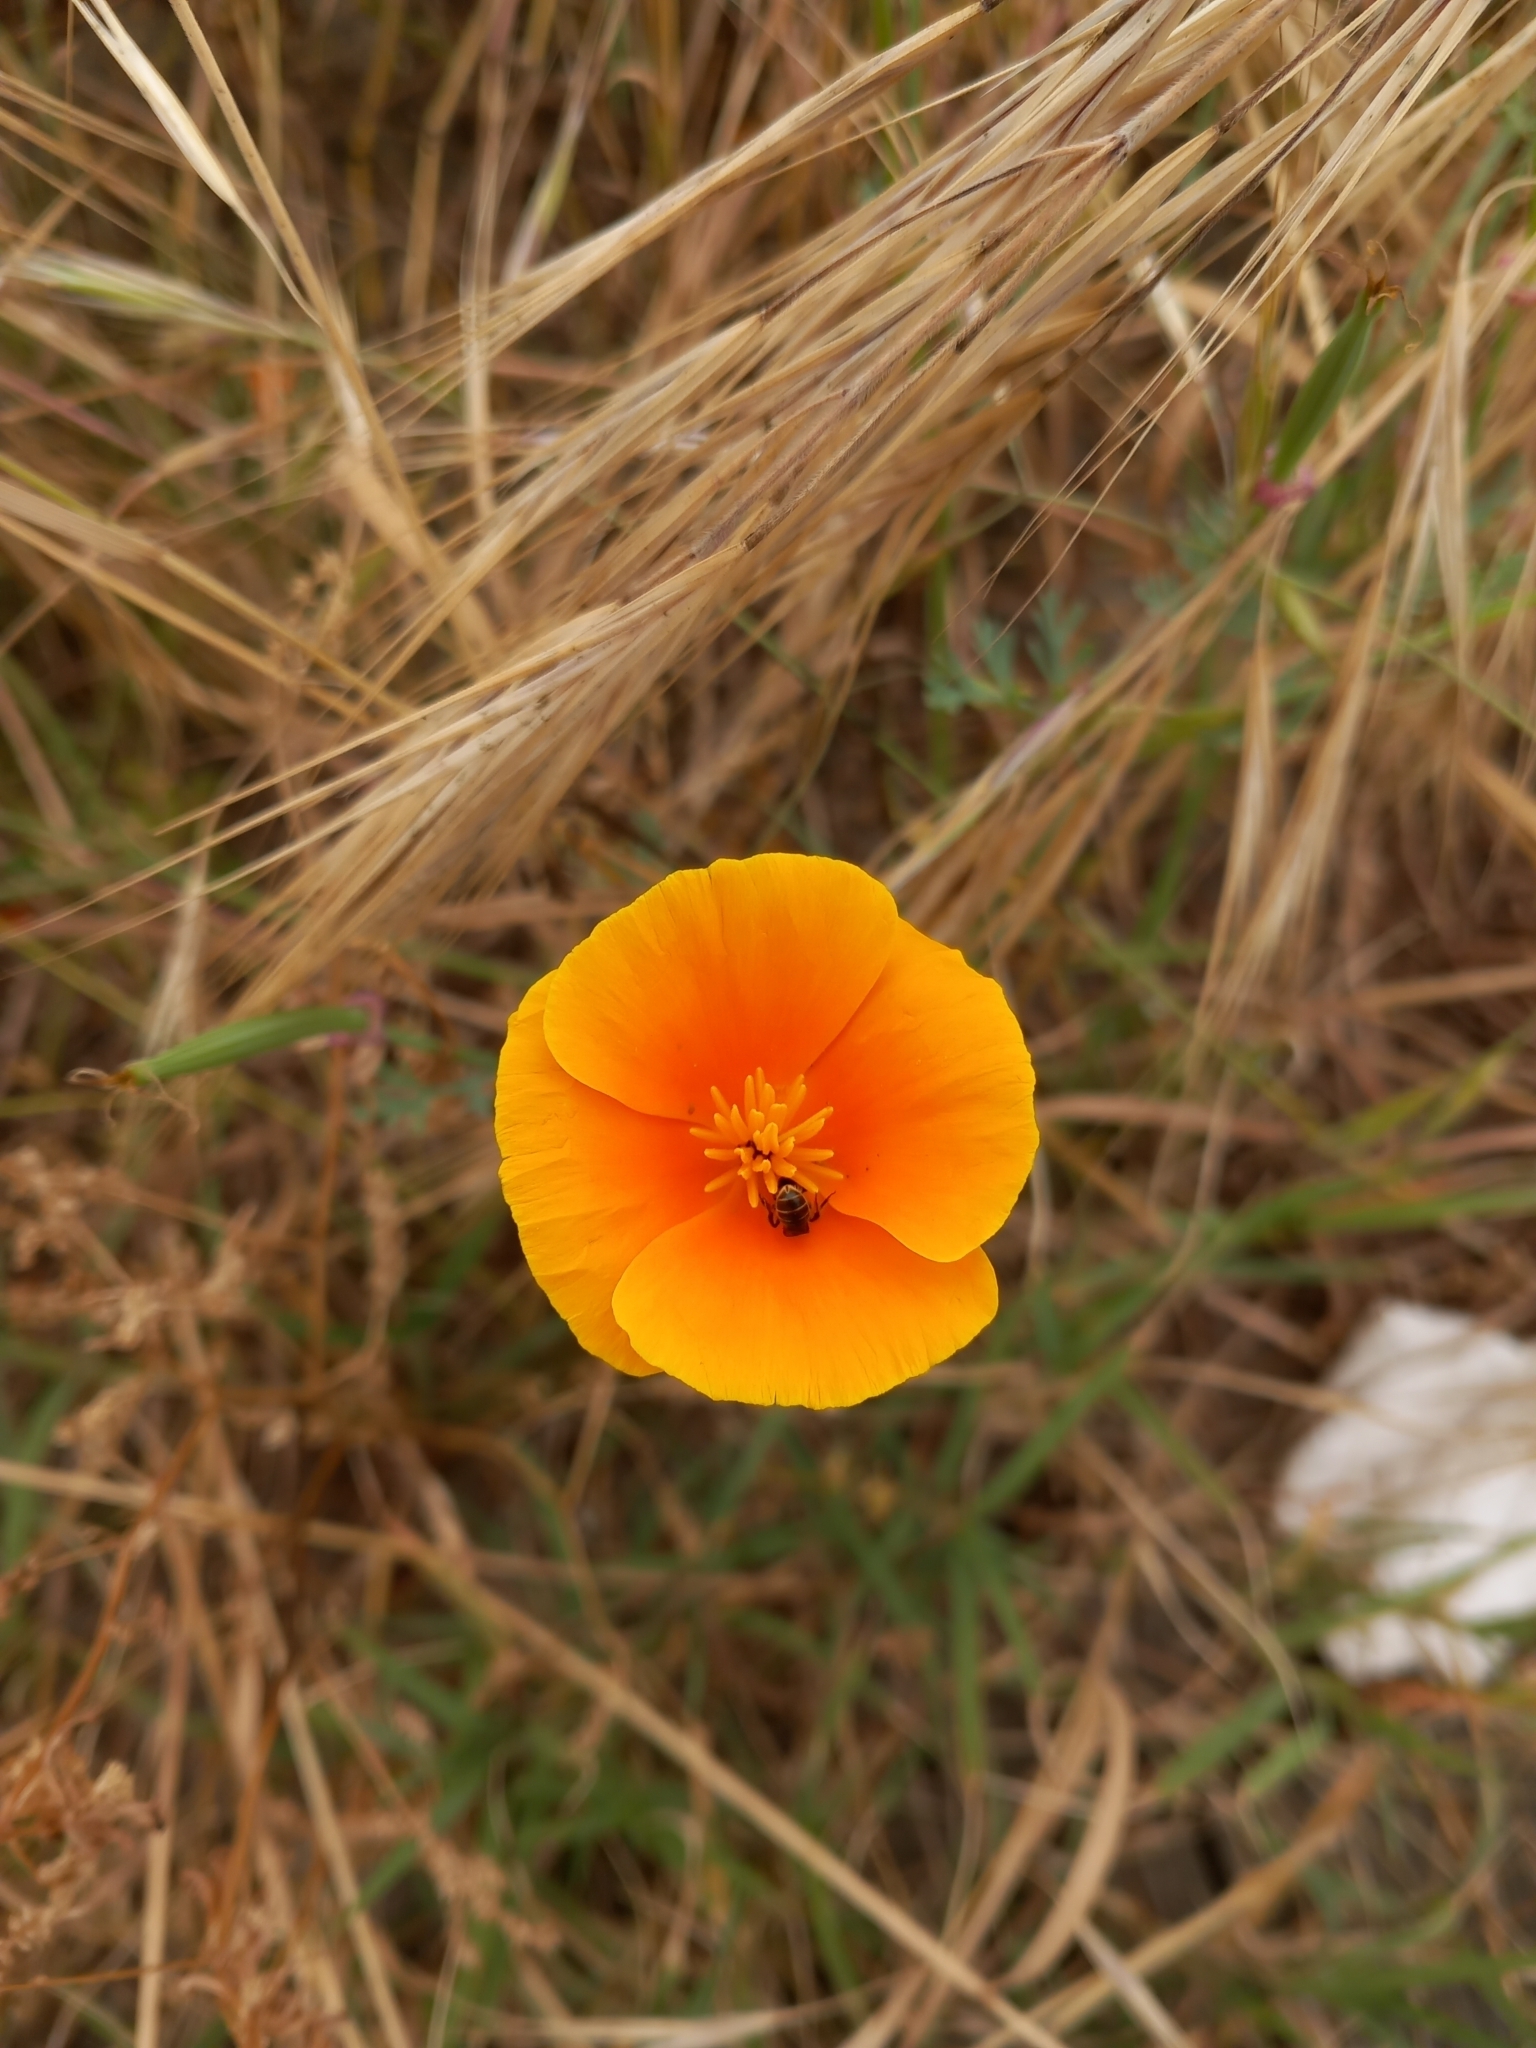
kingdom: Plantae
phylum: Tracheophyta
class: Magnoliopsida
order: Ranunculales
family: Papaveraceae
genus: Eschscholzia
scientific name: Eschscholzia californica
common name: California poppy
